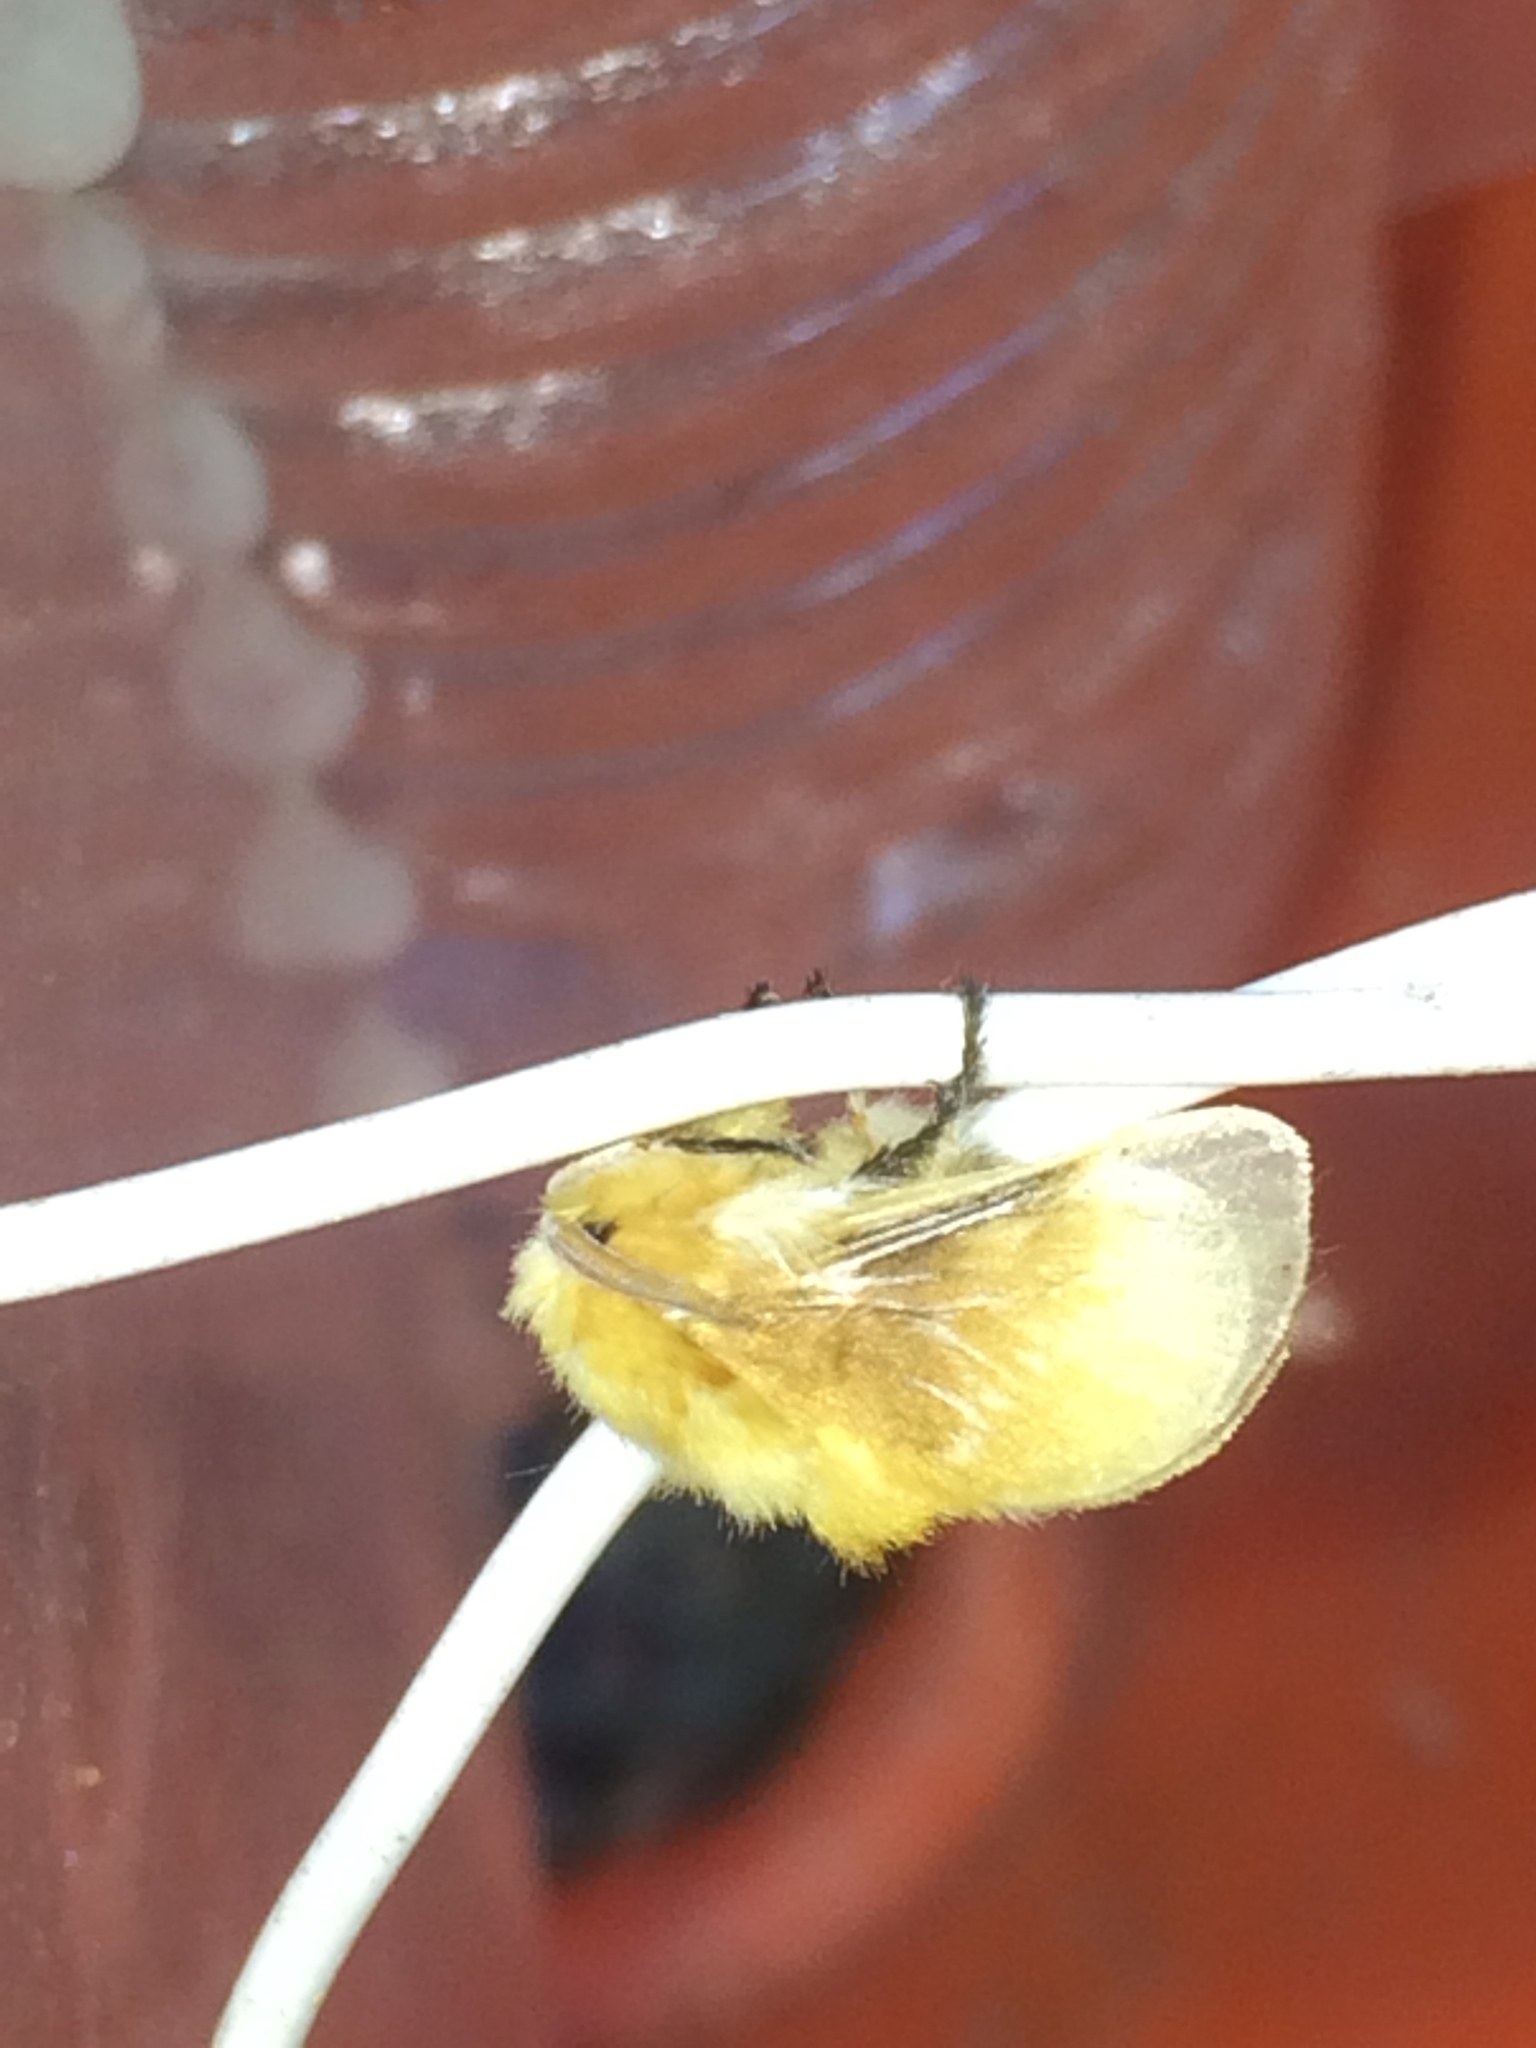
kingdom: Animalia
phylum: Arthropoda
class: Insecta
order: Lepidoptera
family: Megalopygidae
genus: Megalopyge
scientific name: Megalopyge opercularis
